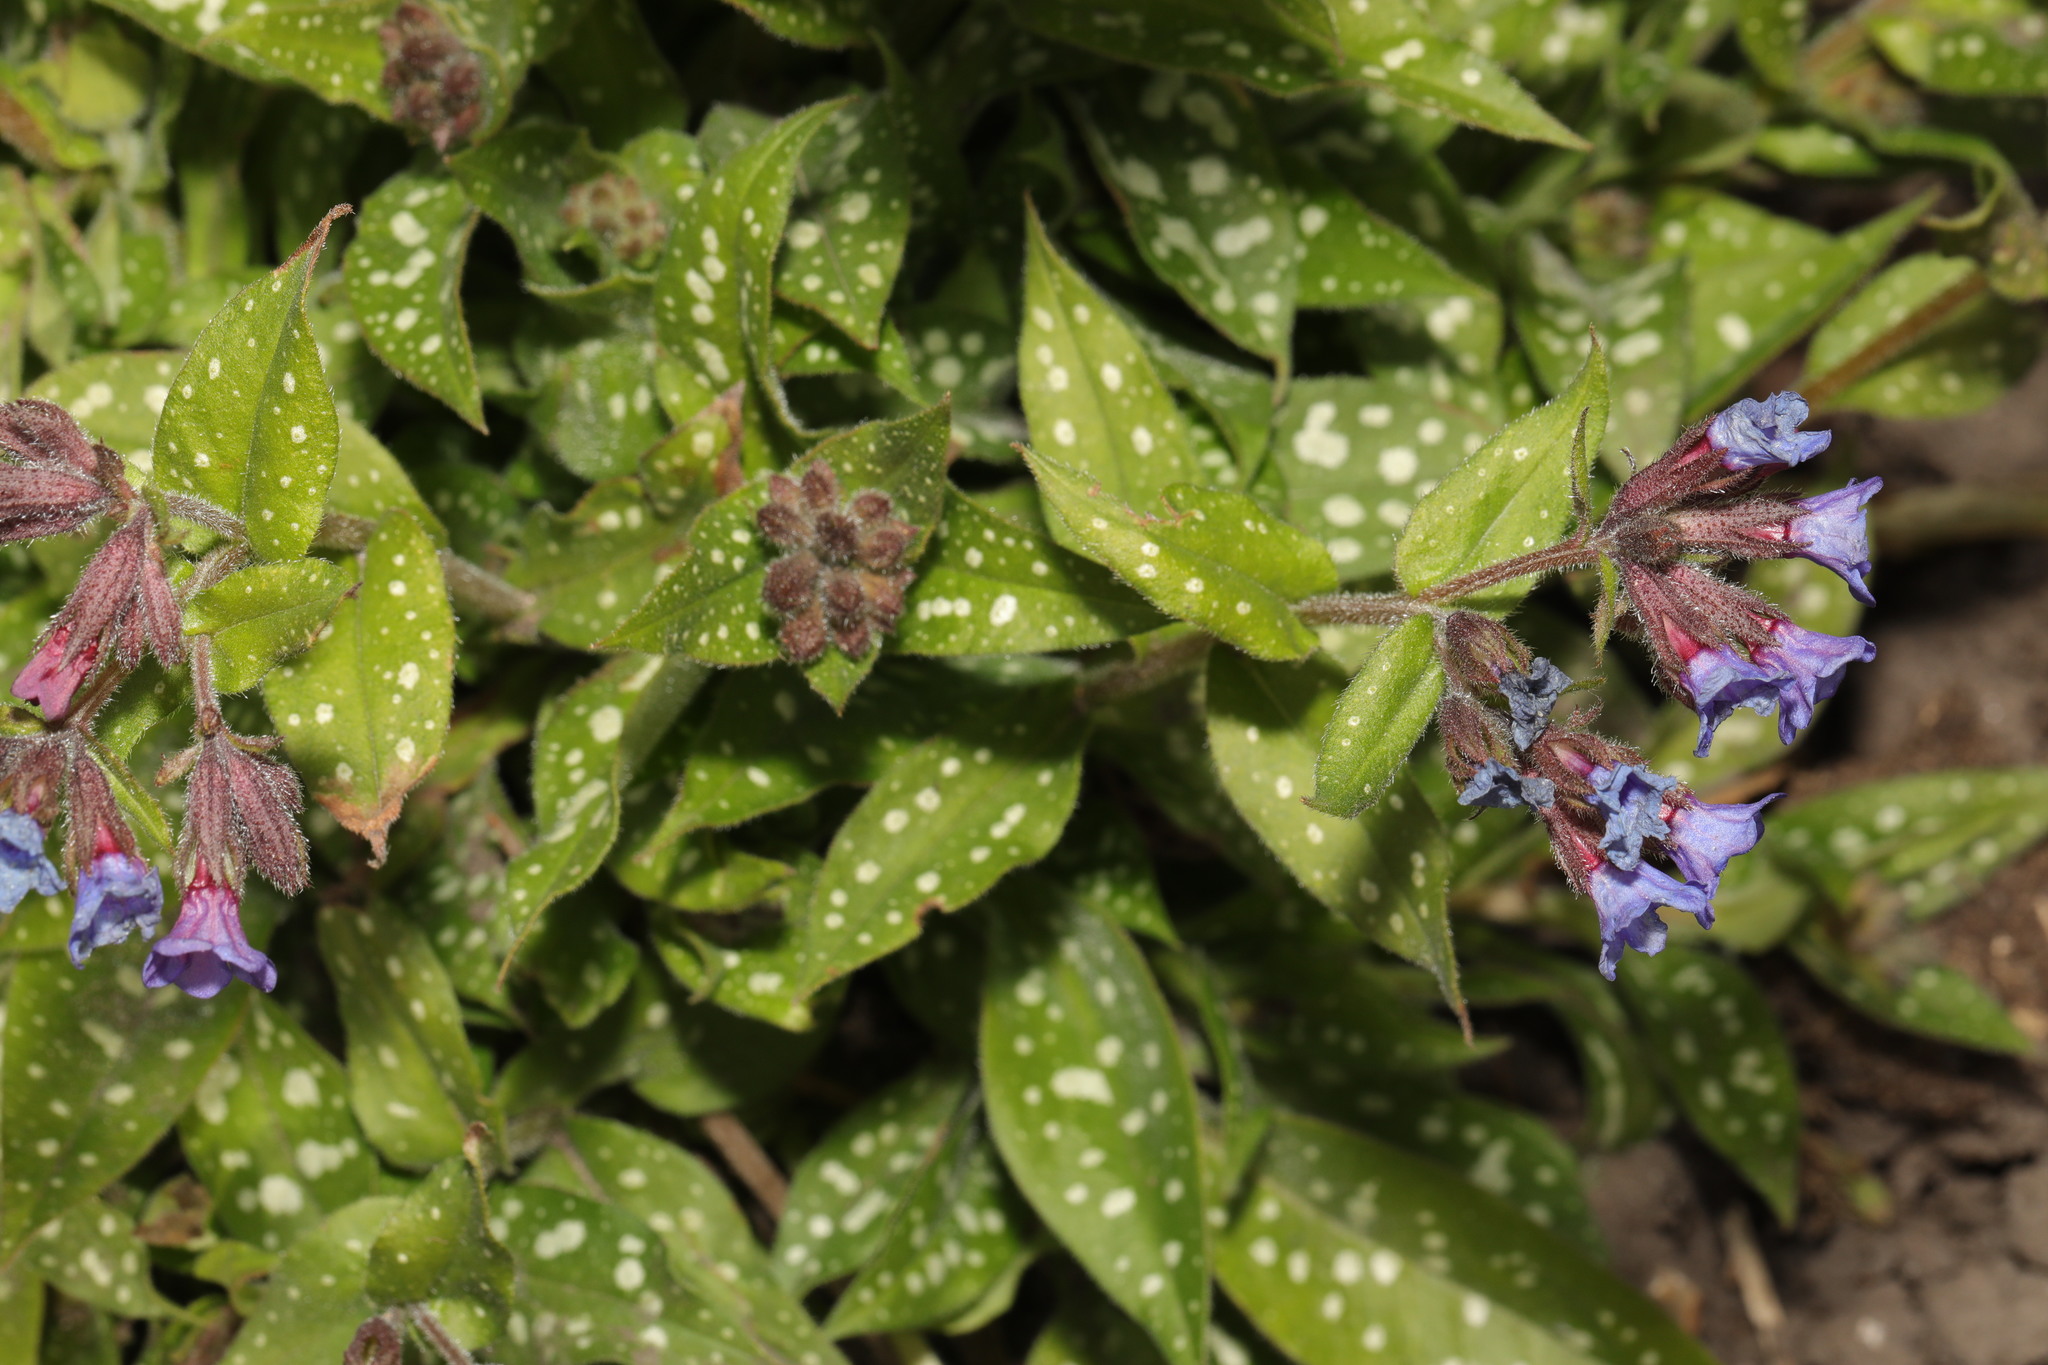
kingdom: Plantae
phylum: Tracheophyta
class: Magnoliopsida
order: Boraginales
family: Boraginaceae
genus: Pulmonaria
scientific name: Pulmonaria officinalis
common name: Lungwort
